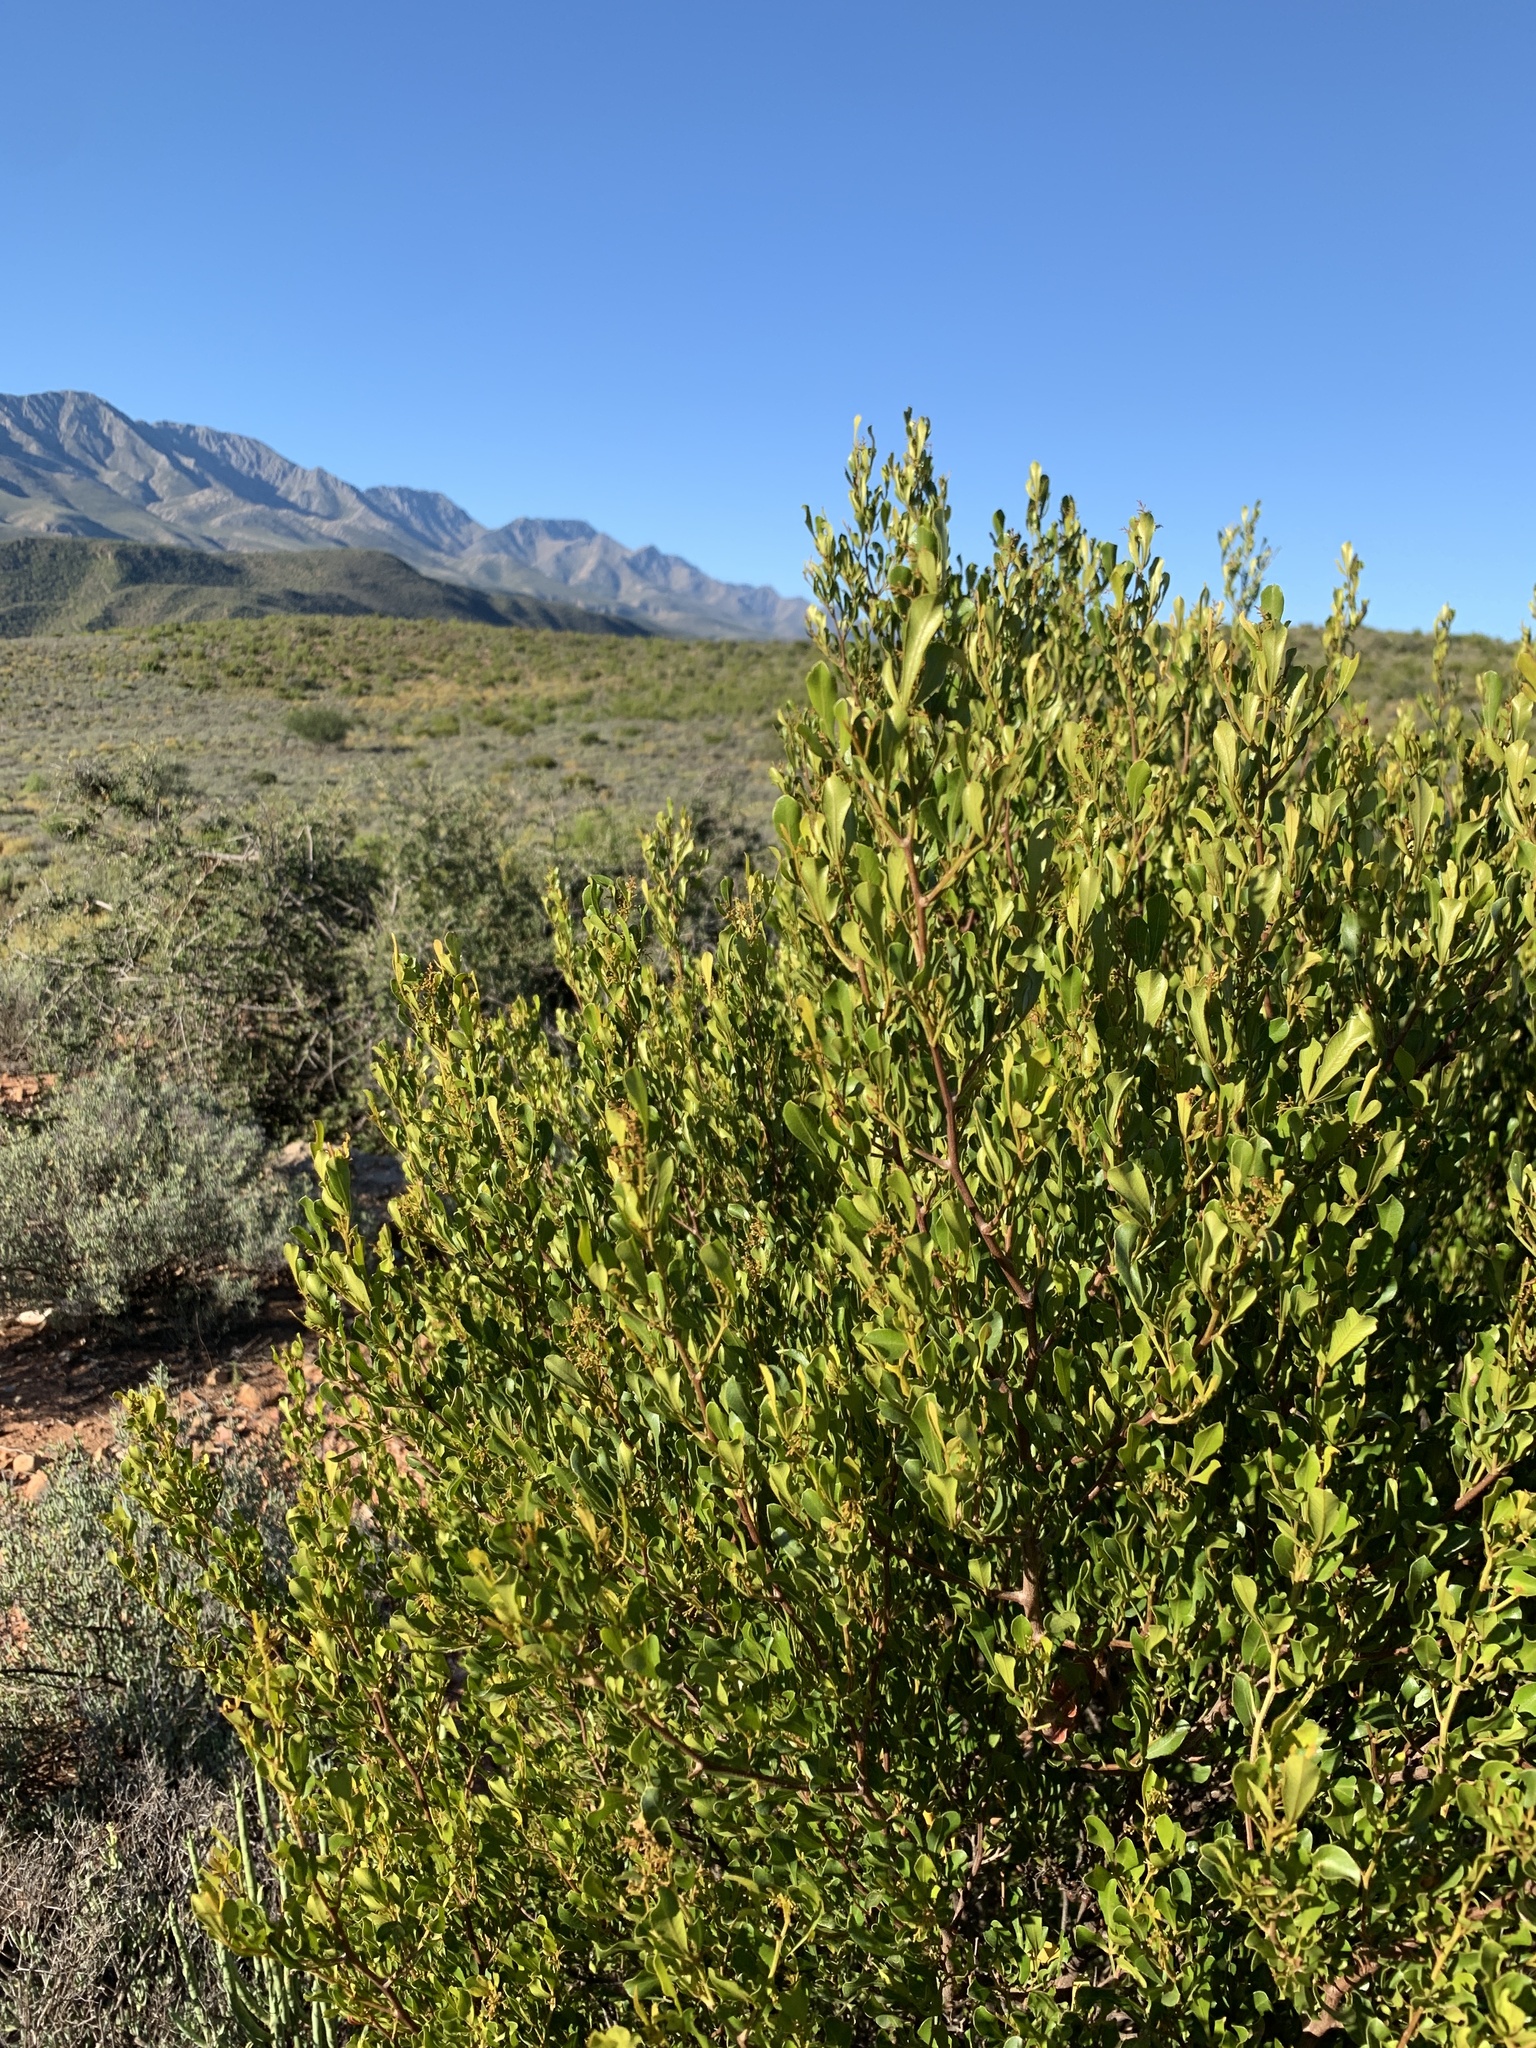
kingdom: Plantae
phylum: Tracheophyta
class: Magnoliopsida
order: Sapindales
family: Anacardiaceae
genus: Searsia
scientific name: Searsia pallens
